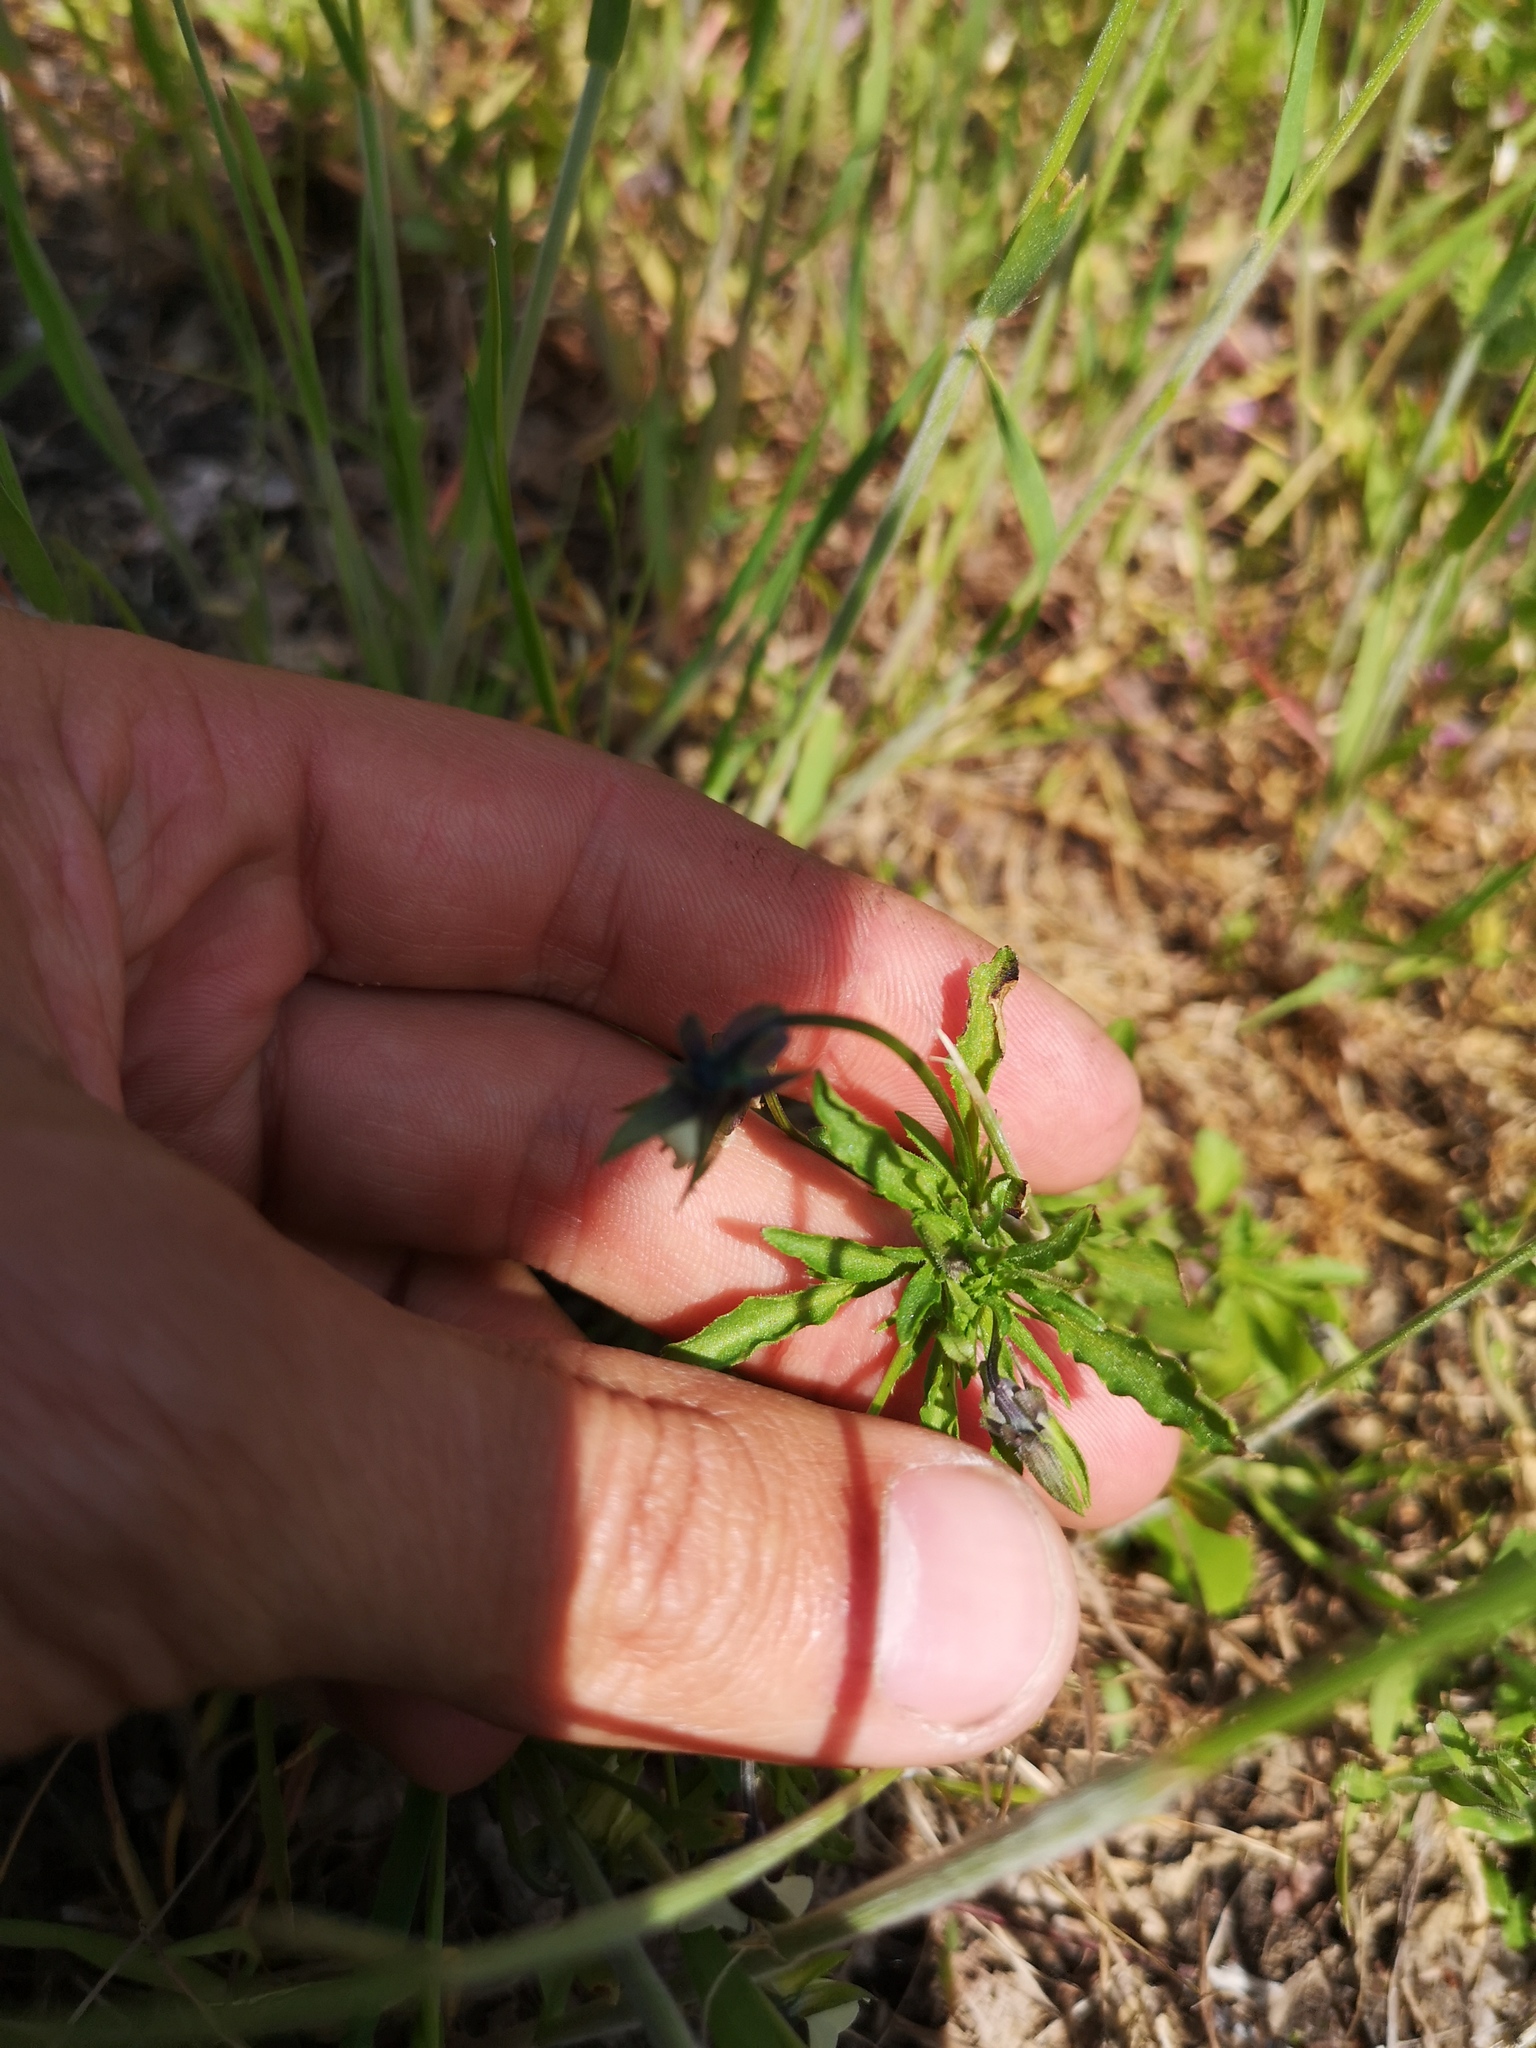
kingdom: Plantae
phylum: Tracheophyta
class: Magnoliopsida
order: Malpighiales
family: Violaceae
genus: Viola
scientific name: Viola arvensis
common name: Field pansy
